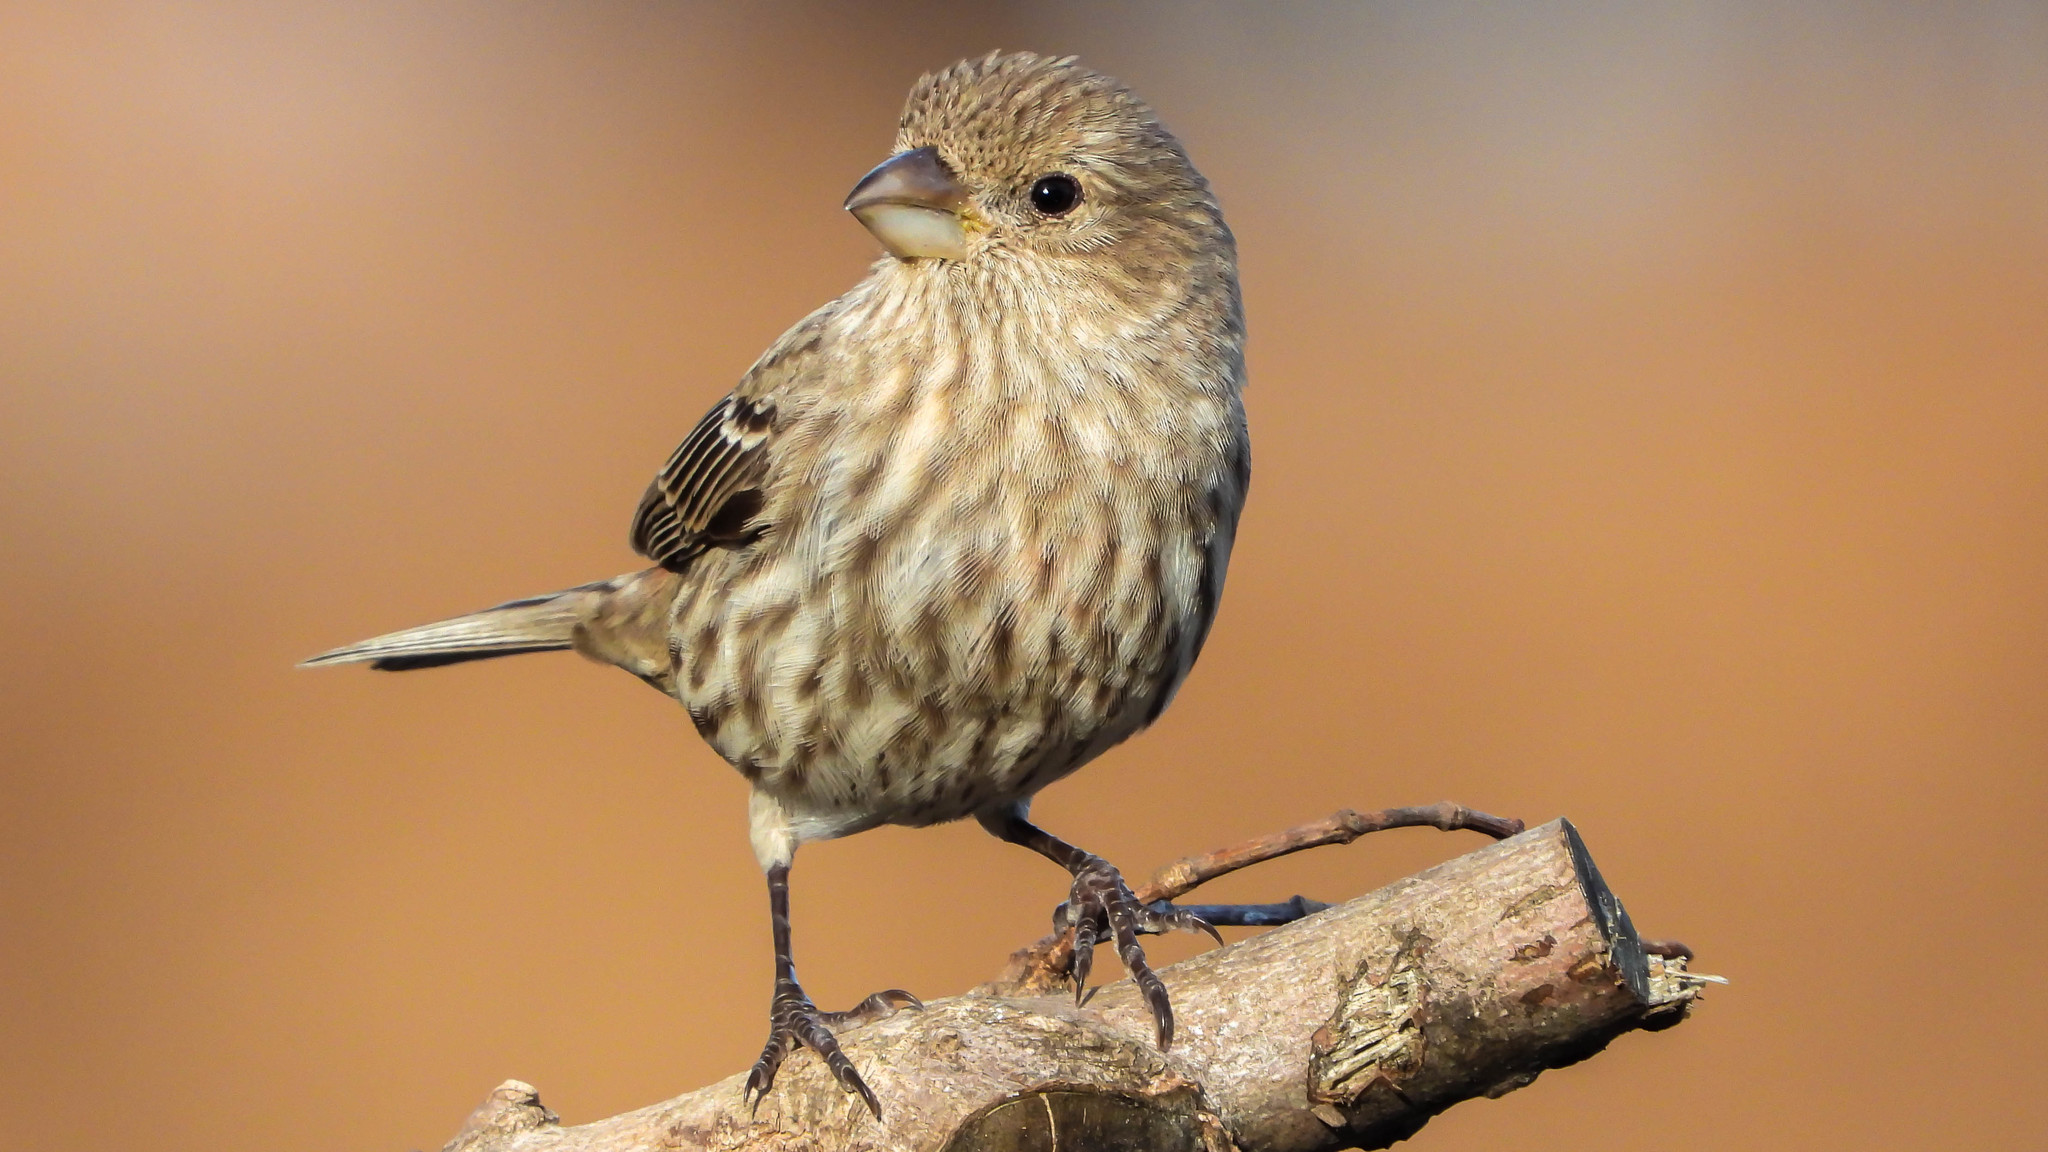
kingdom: Animalia
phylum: Chordata
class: Aves
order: Passeriformes
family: Fringillidae
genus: Haemorhous
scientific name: Haemorhous mexicanus
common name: House finch
